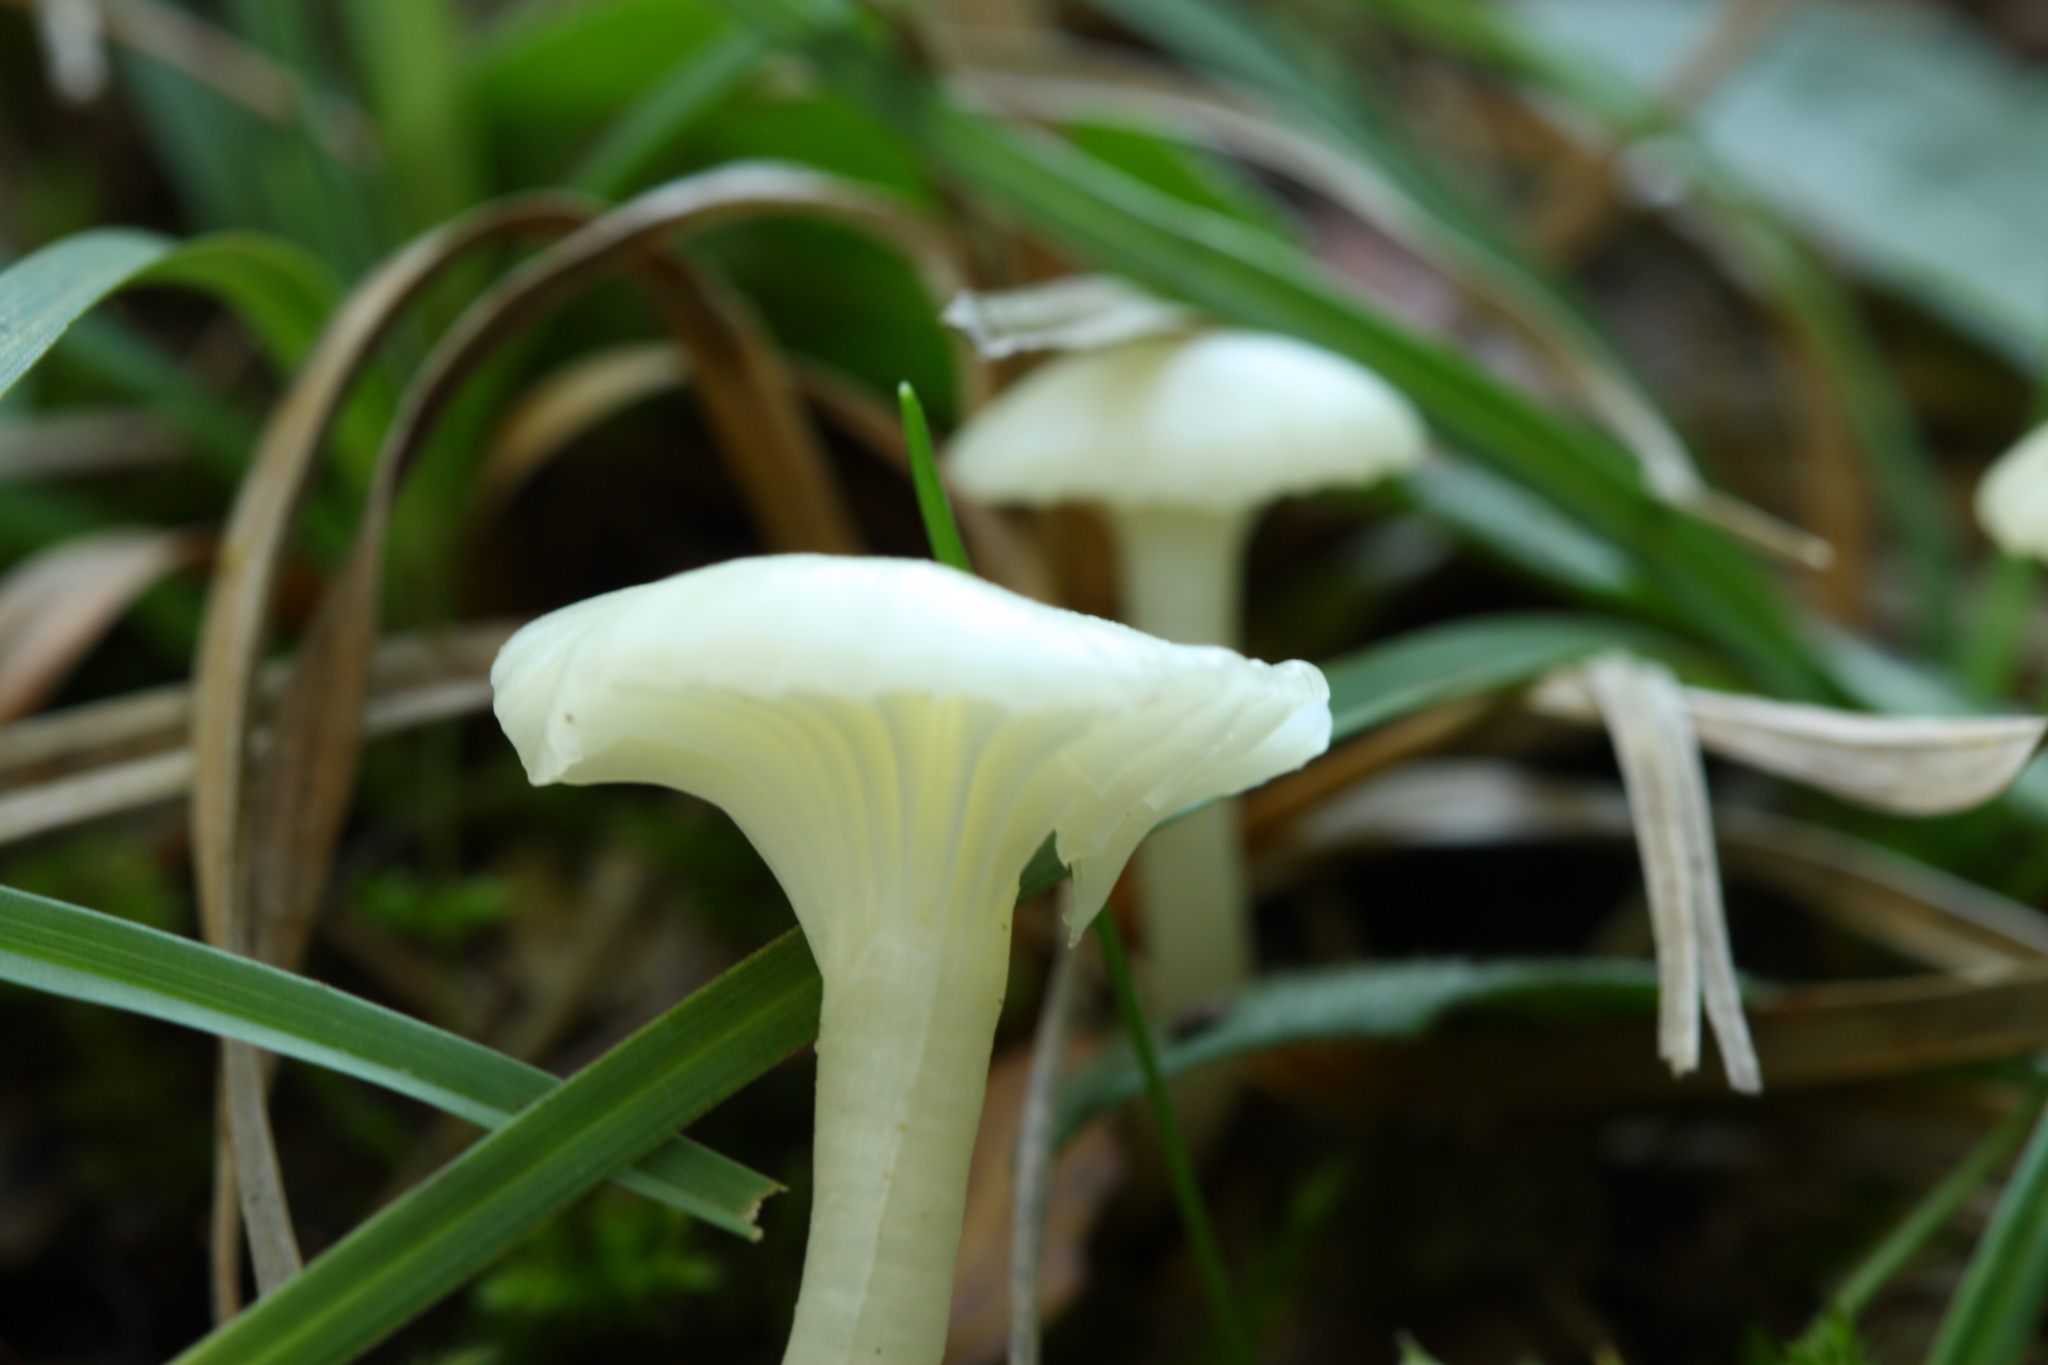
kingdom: Fungi
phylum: Basidiomycota
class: Agaricomycetes
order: Agaricales
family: Hygrophoraceae
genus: Cuphophyllus
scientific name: Cuphophyllus virgineus
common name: Snowy waxcap
